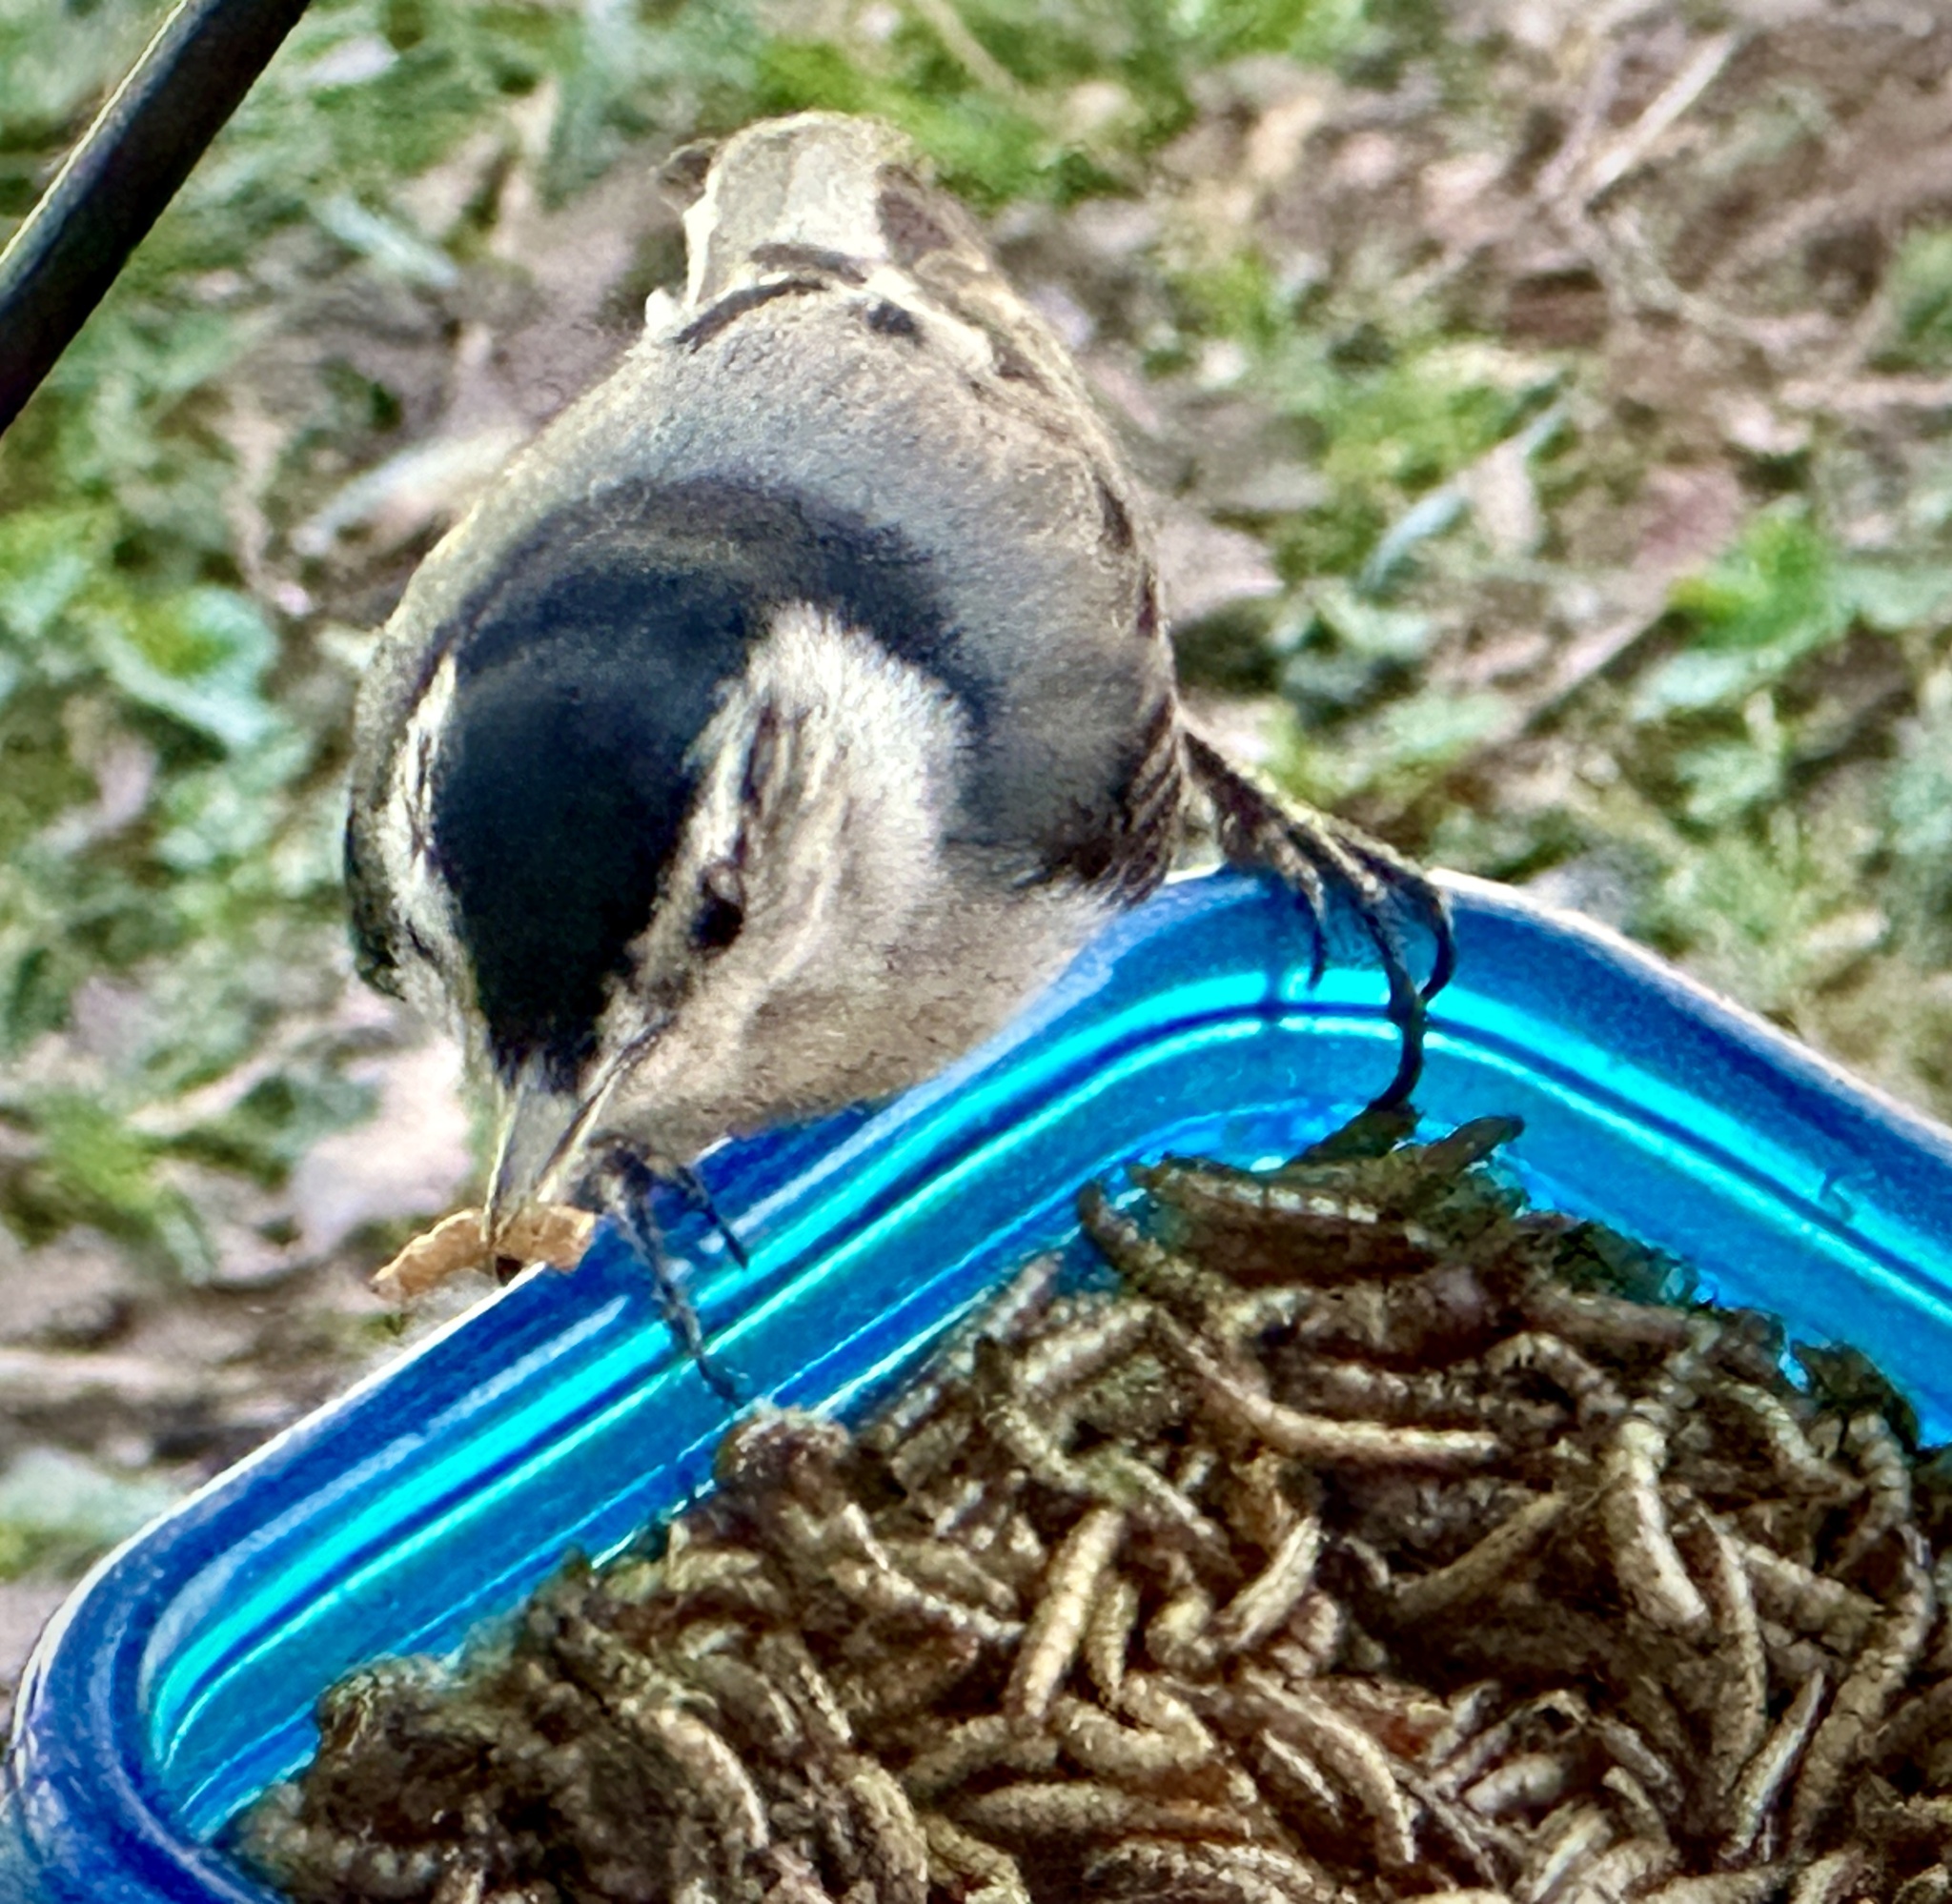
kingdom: Animalia
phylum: Chordata
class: Aves
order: Passeriformes
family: Sittidae
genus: Sitta
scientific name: Sitta carolinensis
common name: White-breasted nuthatch
